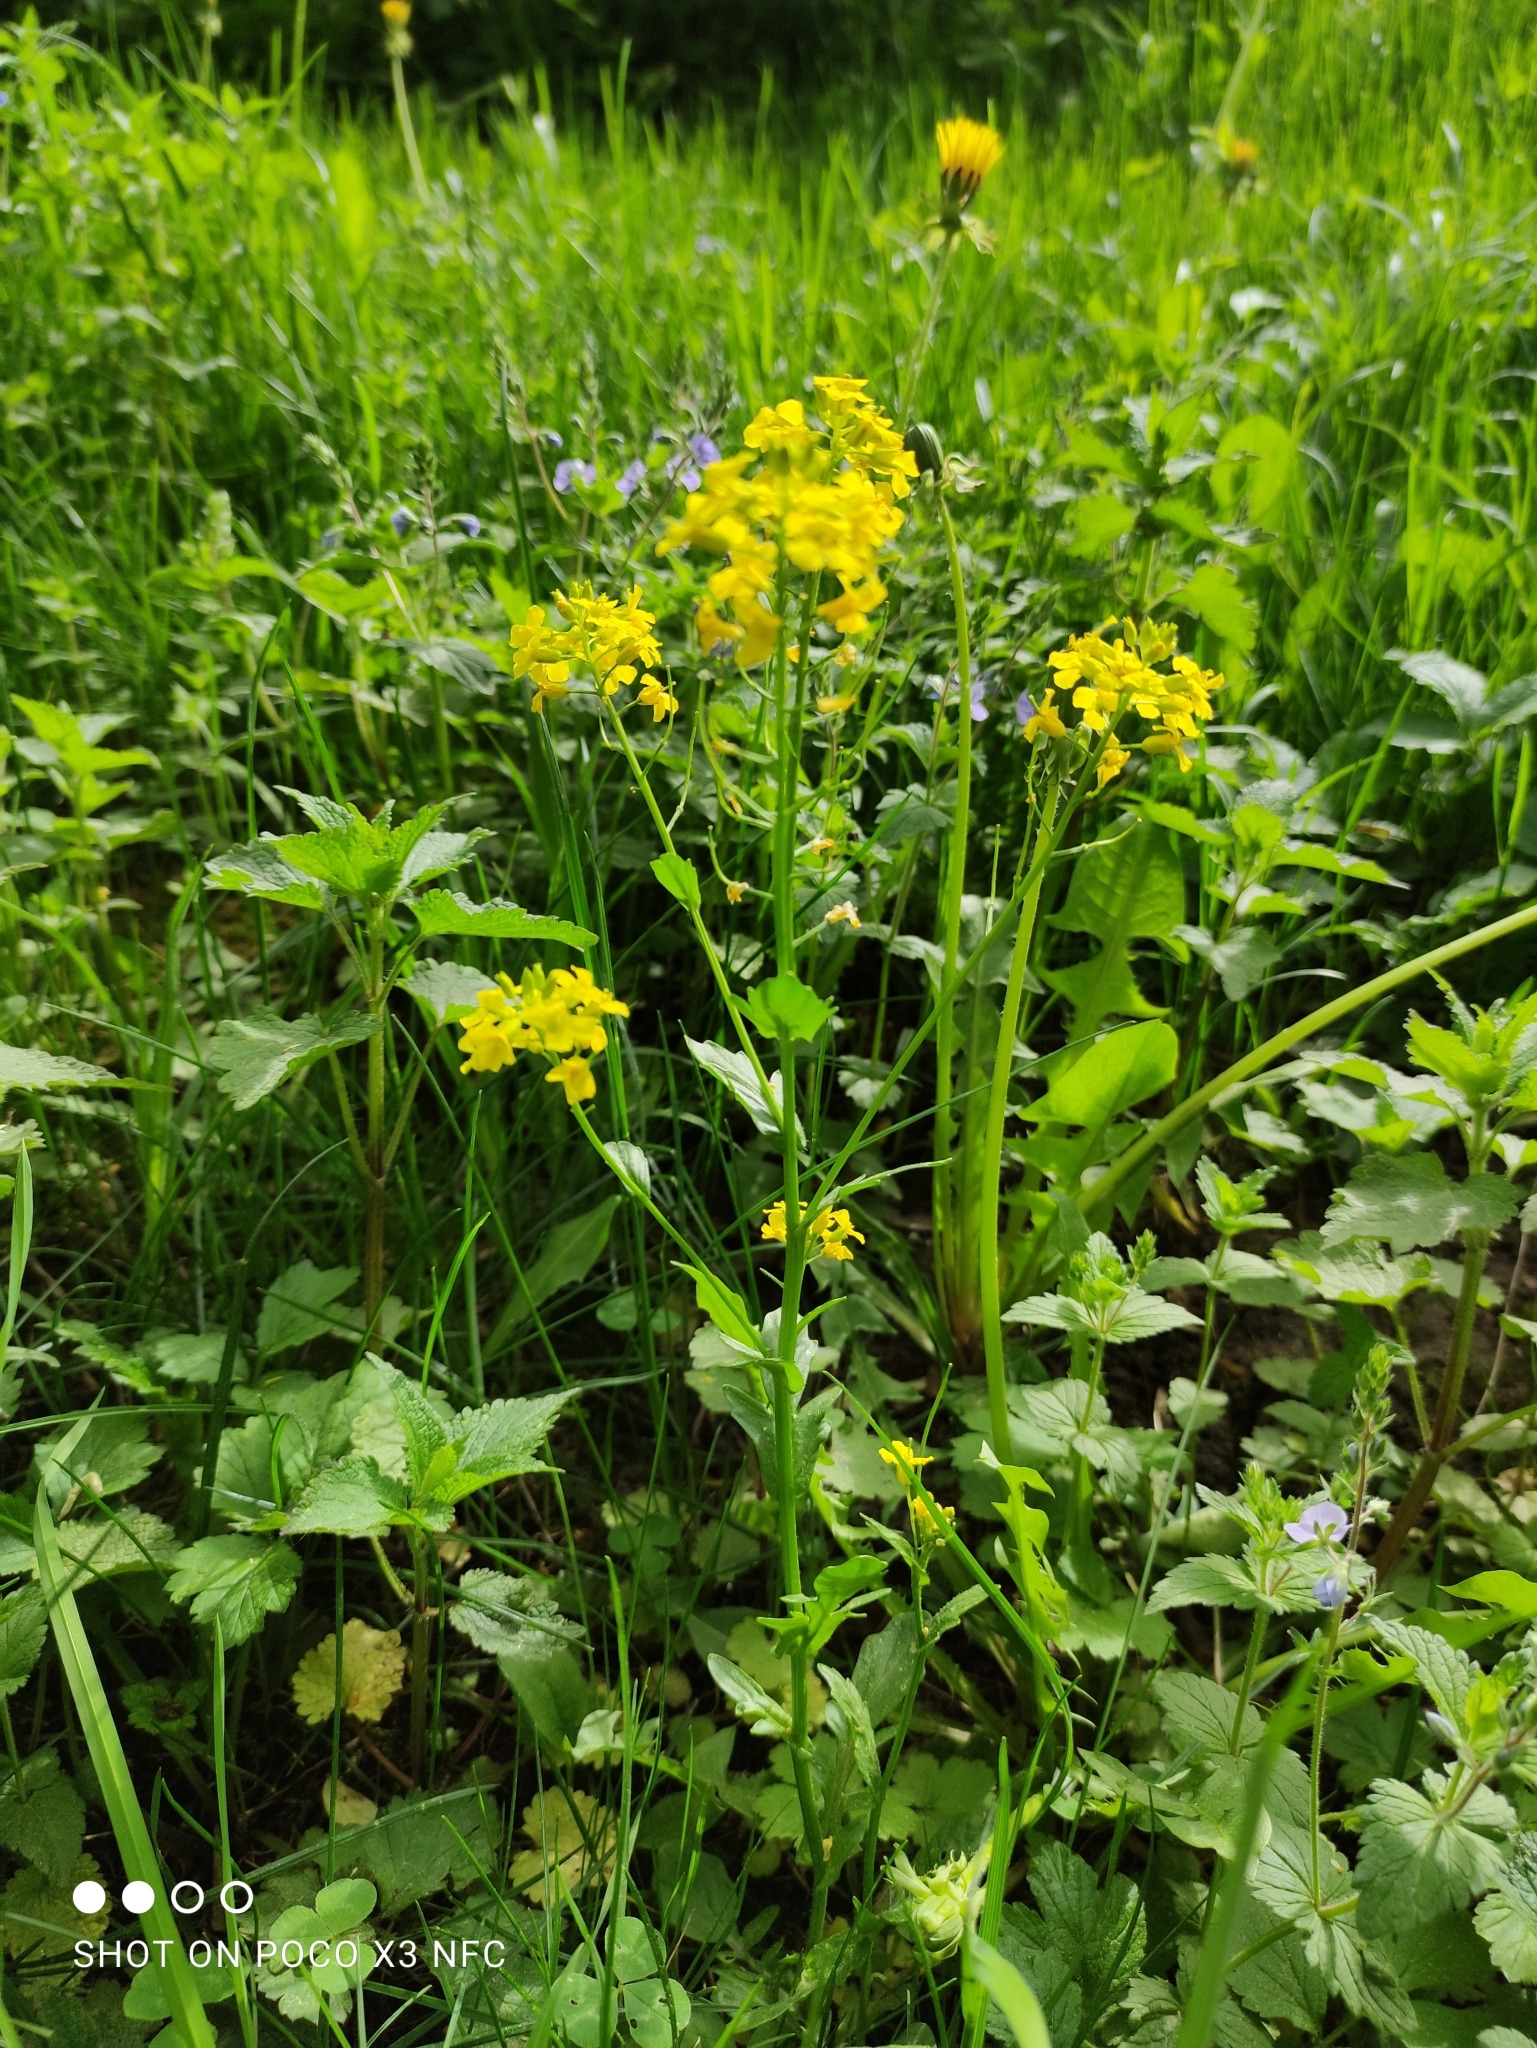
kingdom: Plantae
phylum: Tracheophyta
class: Magnoliopsida
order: Brassicales
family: Brassicaceae
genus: Barbarea
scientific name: Barbarea vulgaris
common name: Cressy-greens
